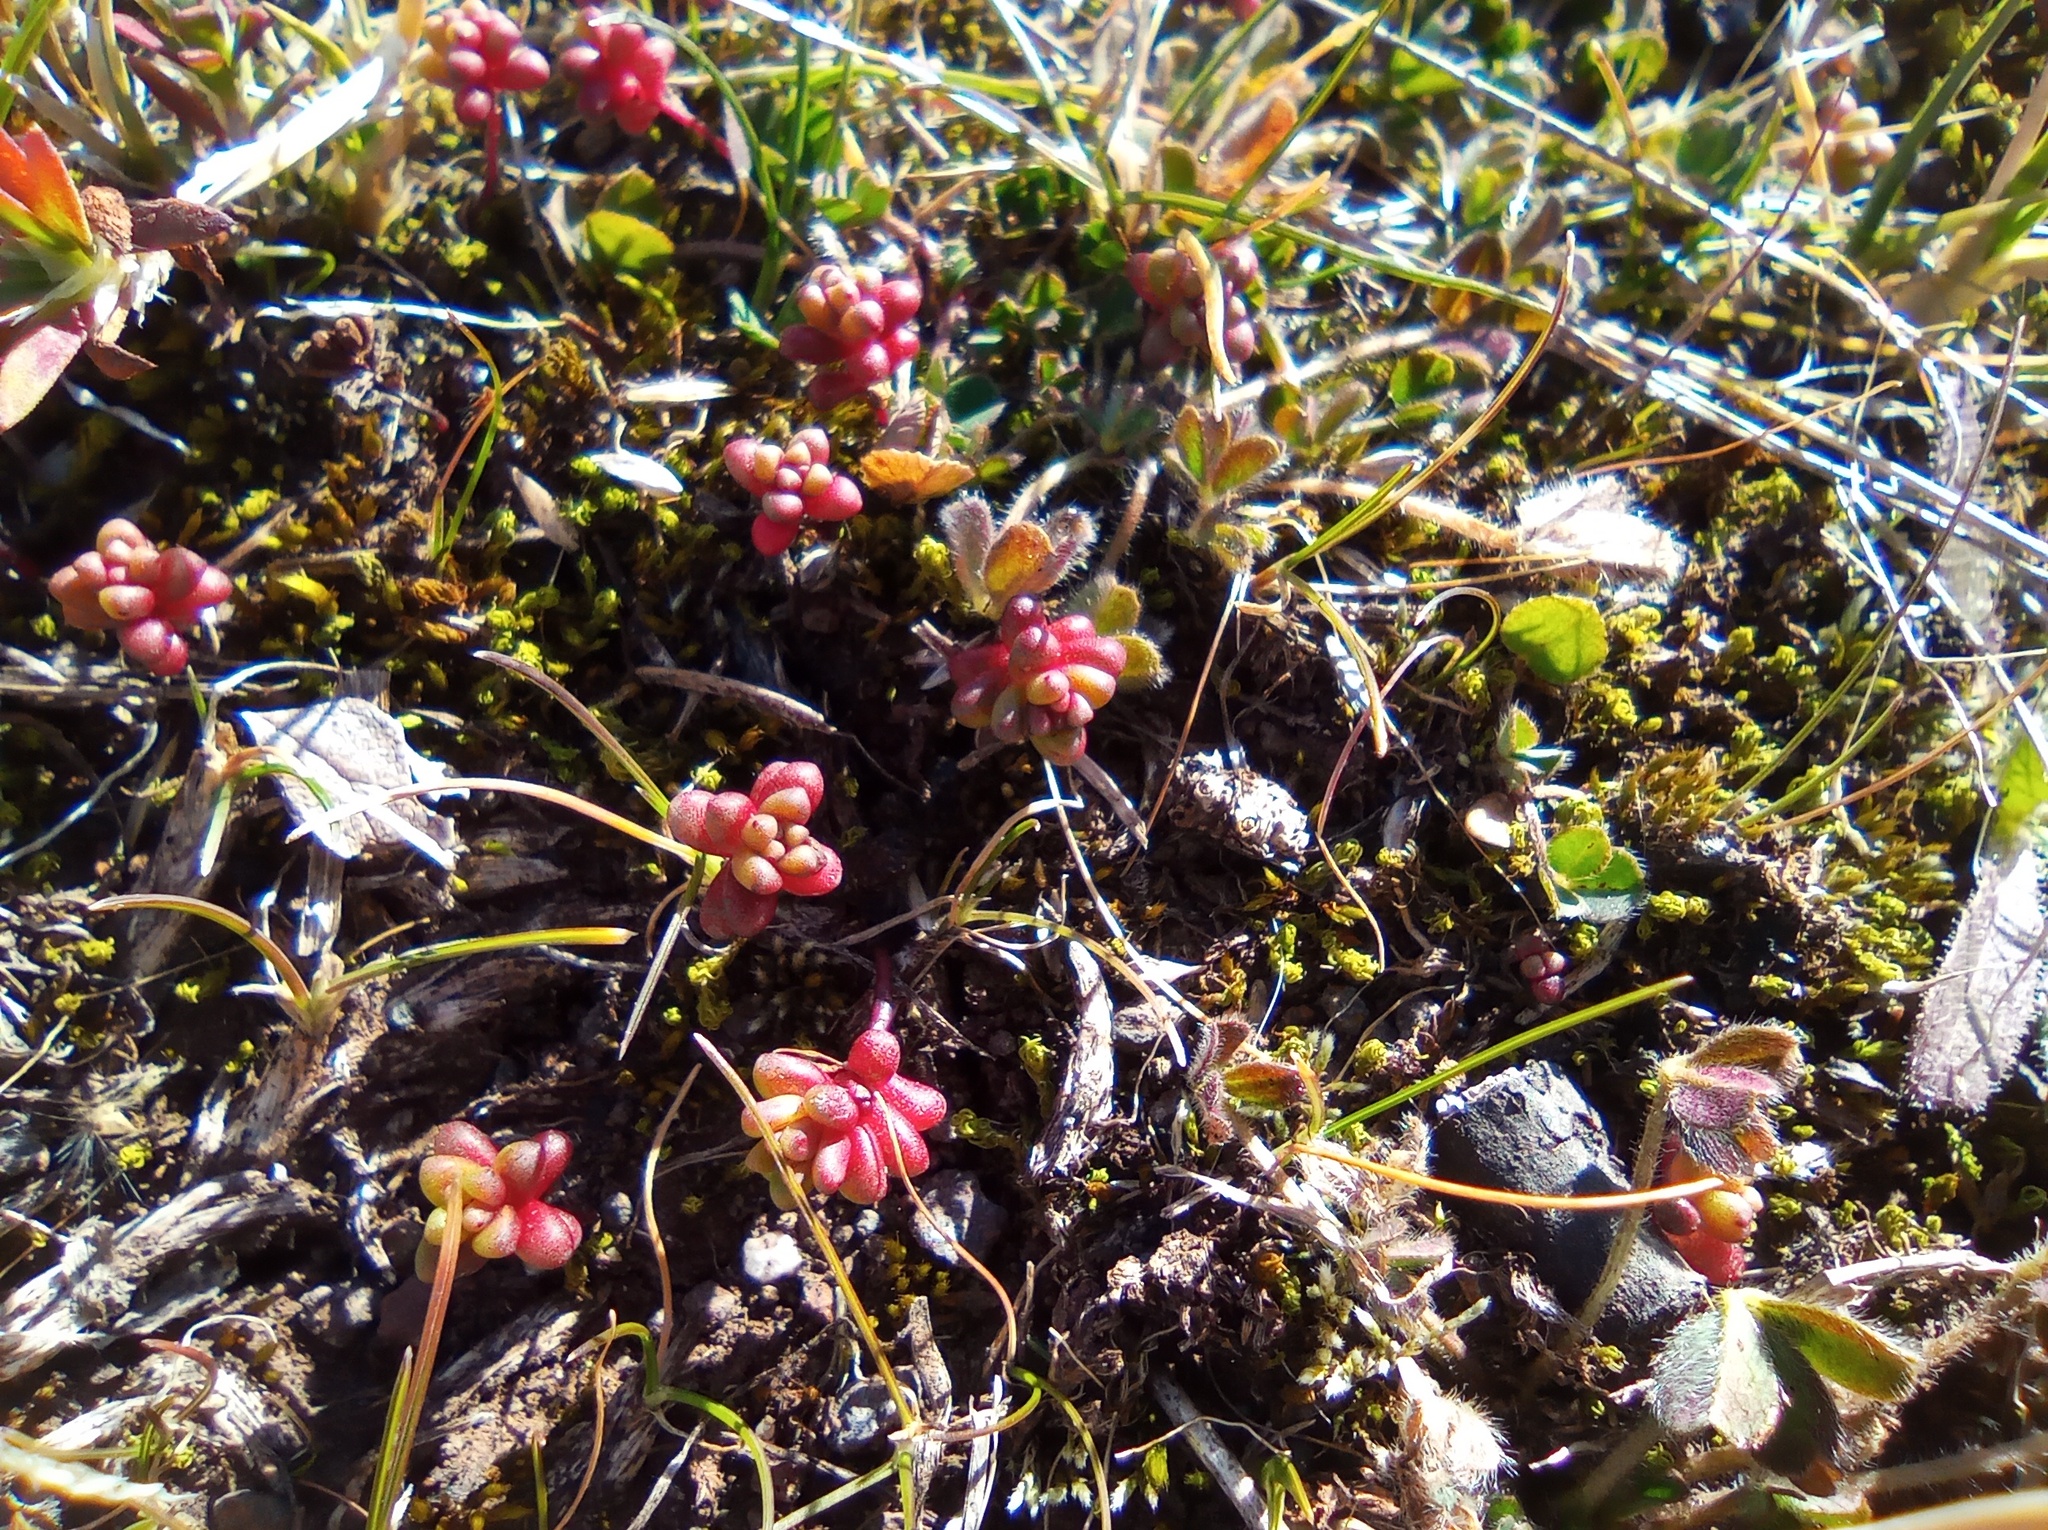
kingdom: Plantae
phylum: Tracheophyta
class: Magnoliopsida
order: Saxifragales
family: Crassulaceae
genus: Sedum
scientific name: Sedum cespitosum
